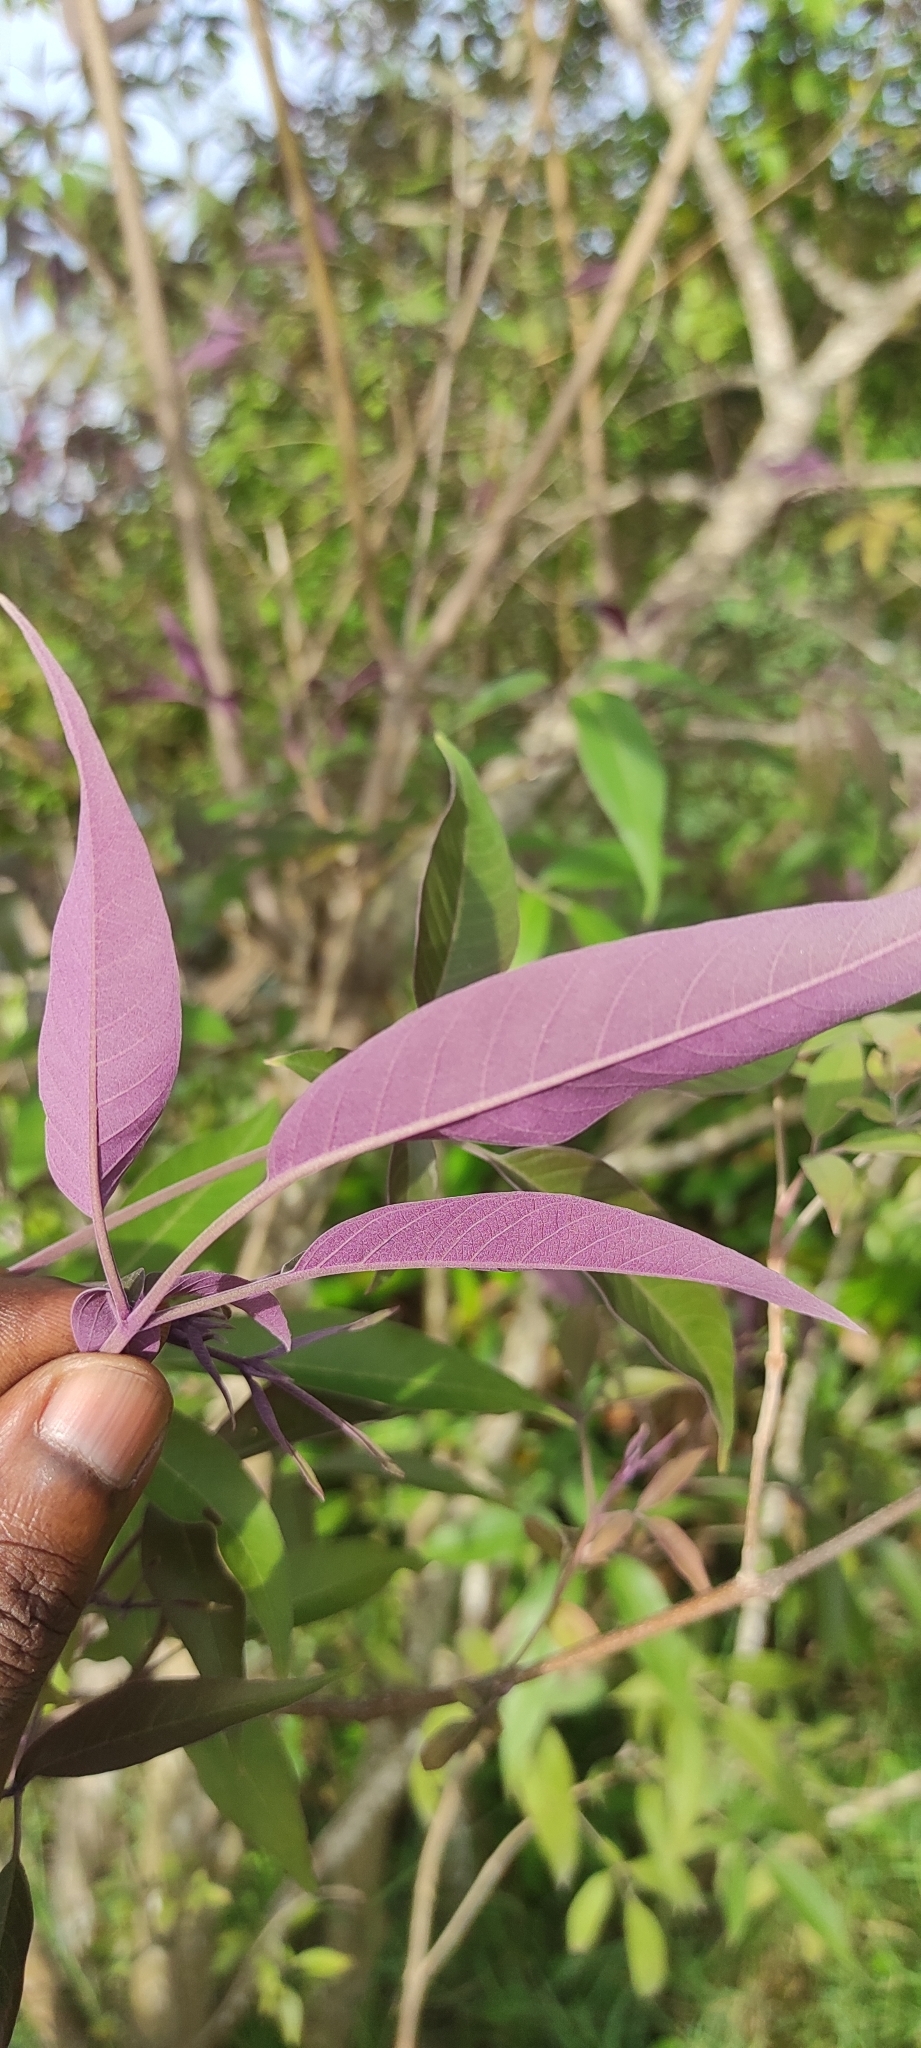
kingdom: Plantae
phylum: Tracheophyta
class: Magnoliopsida
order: Lamiales
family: Lamiaceae
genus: Vitex
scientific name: Vitex negundo
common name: Chinese chastetree
